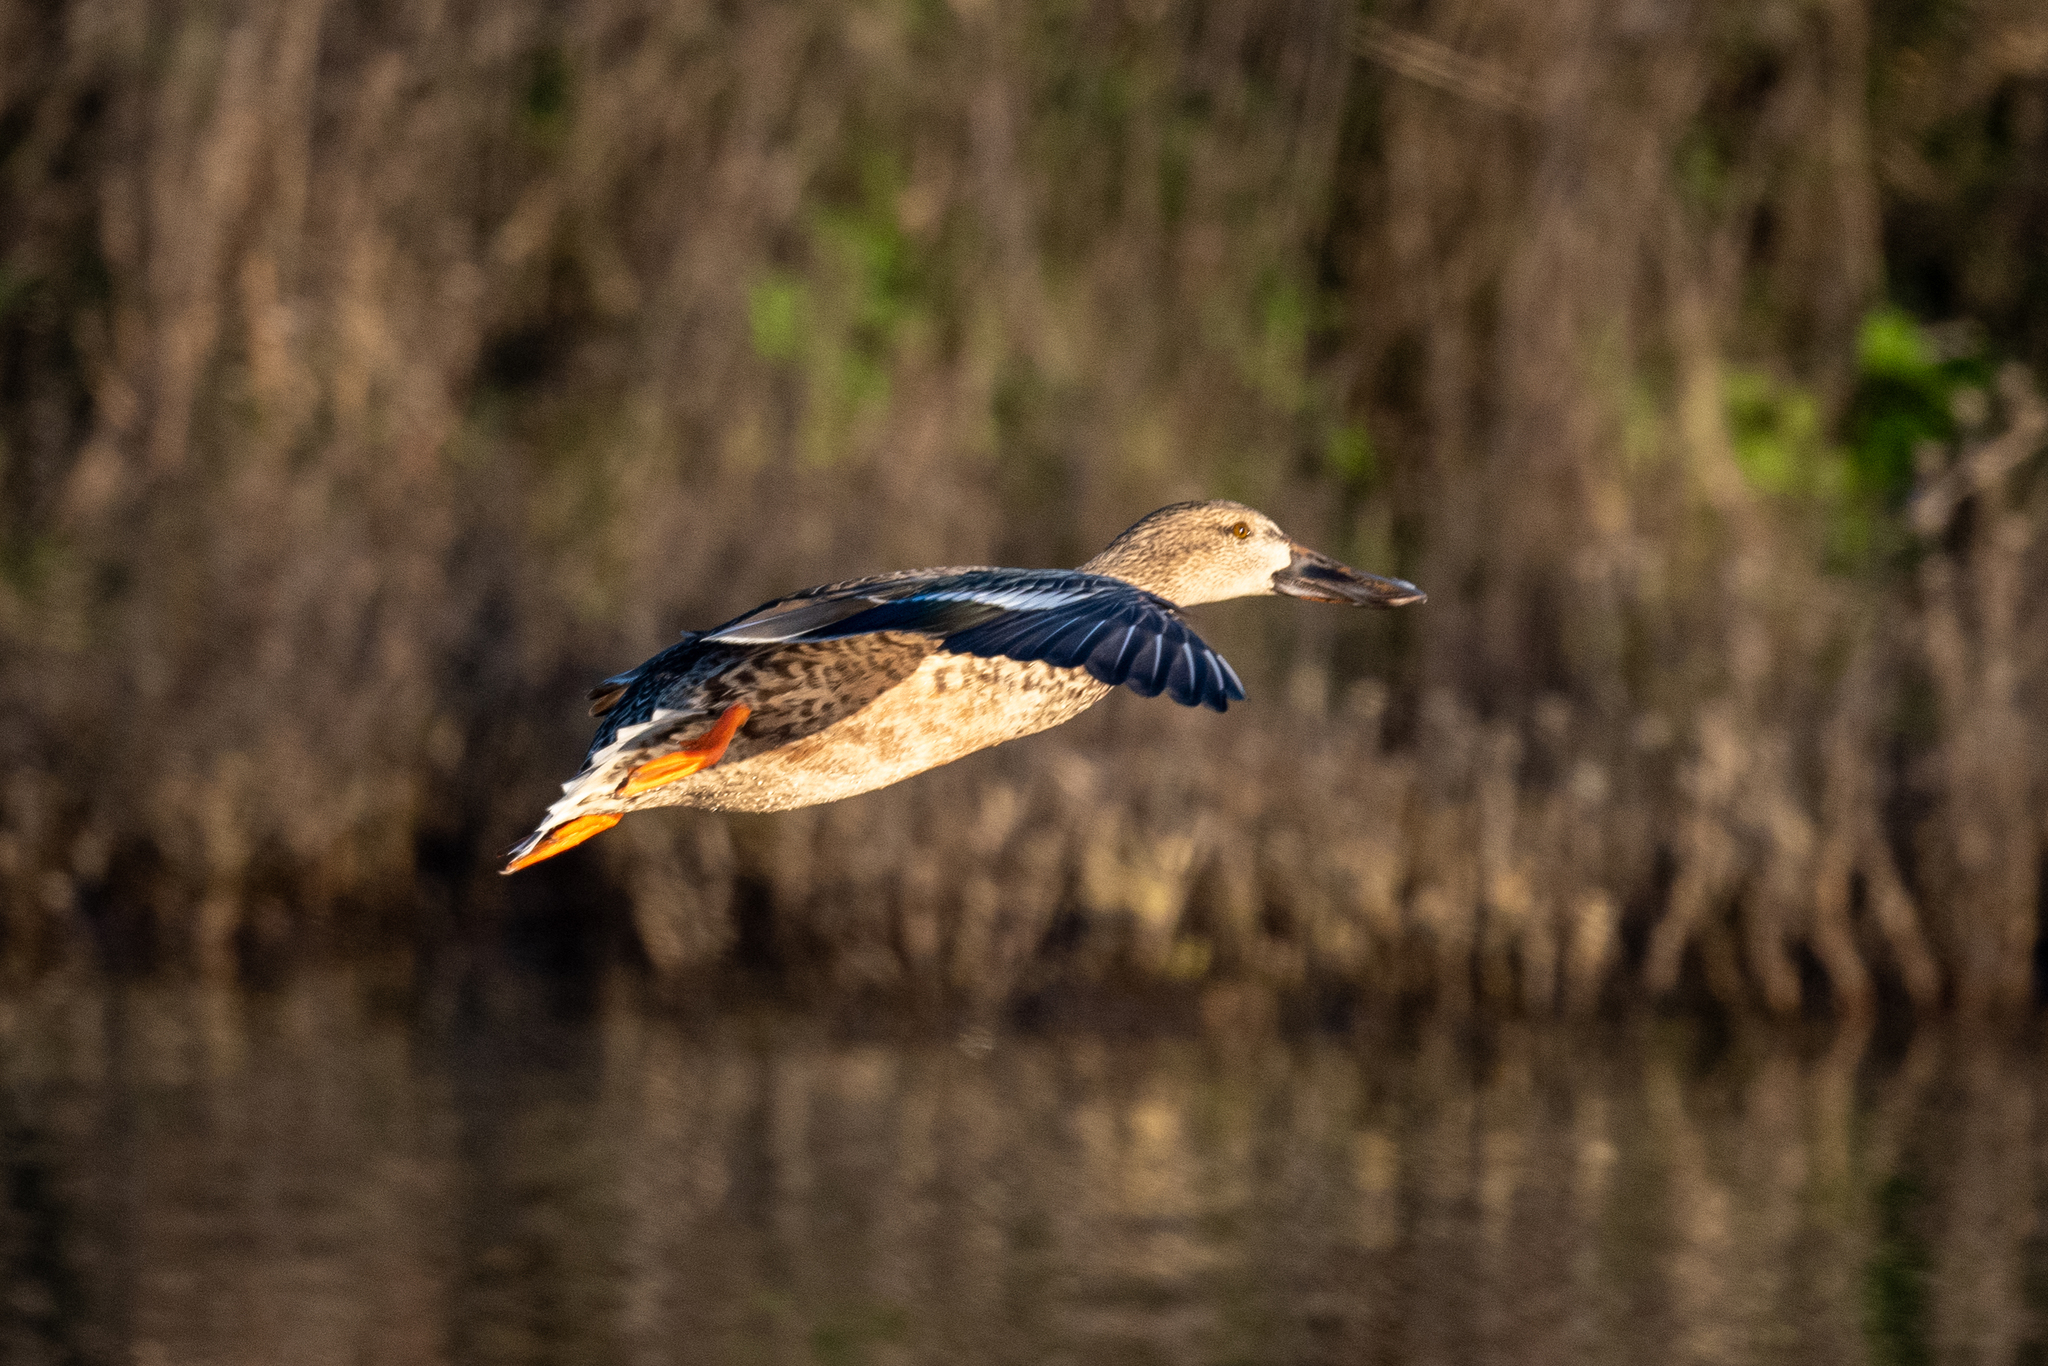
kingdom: Animalia
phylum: Chordata
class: Aves
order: Anseriformes
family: Anatidae
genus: Spatula
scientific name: Spatula clypeata
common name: Northern shoveler
